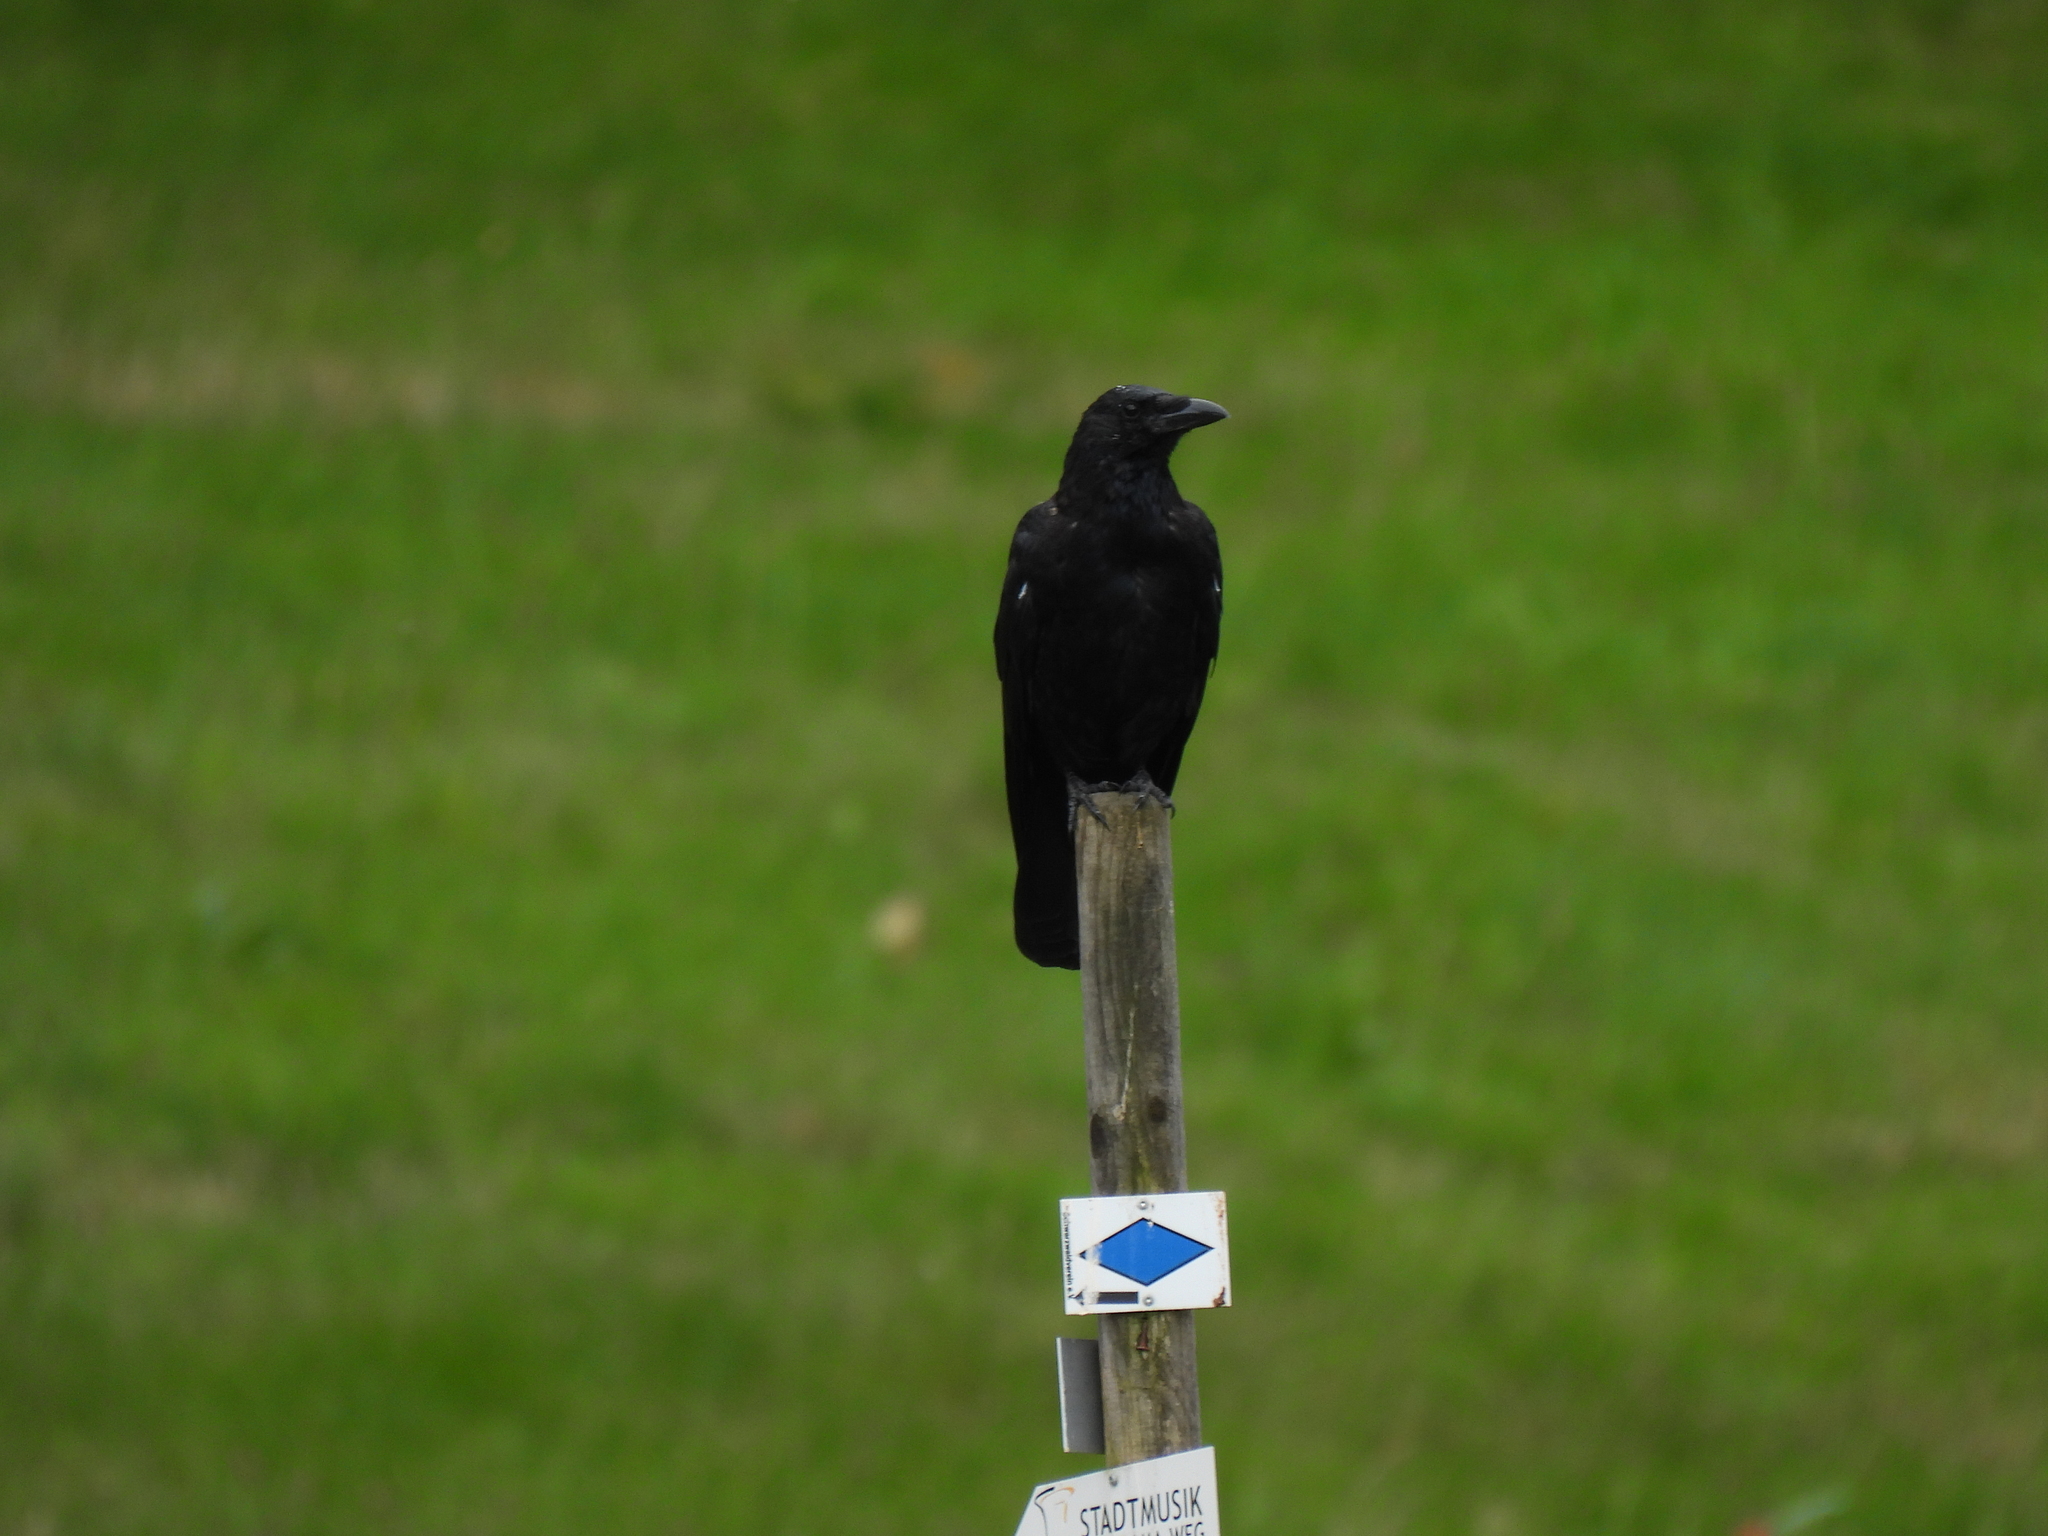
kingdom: Animalia
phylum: Chordata
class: Aves
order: Passeriformes
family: Corvidae
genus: Corvus
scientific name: Corvus corone
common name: Carrion crow
